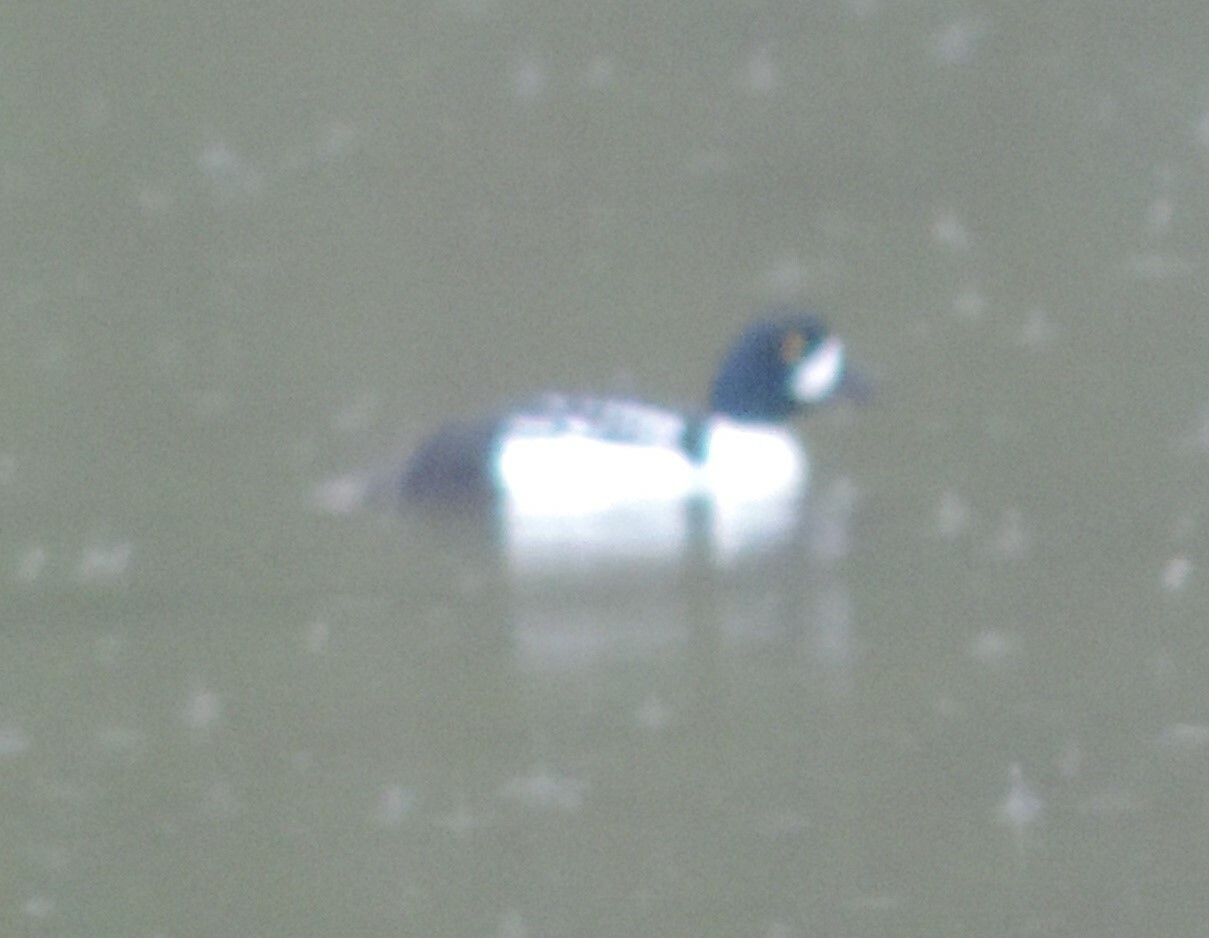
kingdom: Animalia
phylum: Chordata
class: Aves
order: Anseriformes
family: Anatidae
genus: Bucephala
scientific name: Bucephala islandica
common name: Barrow's goldeneye
